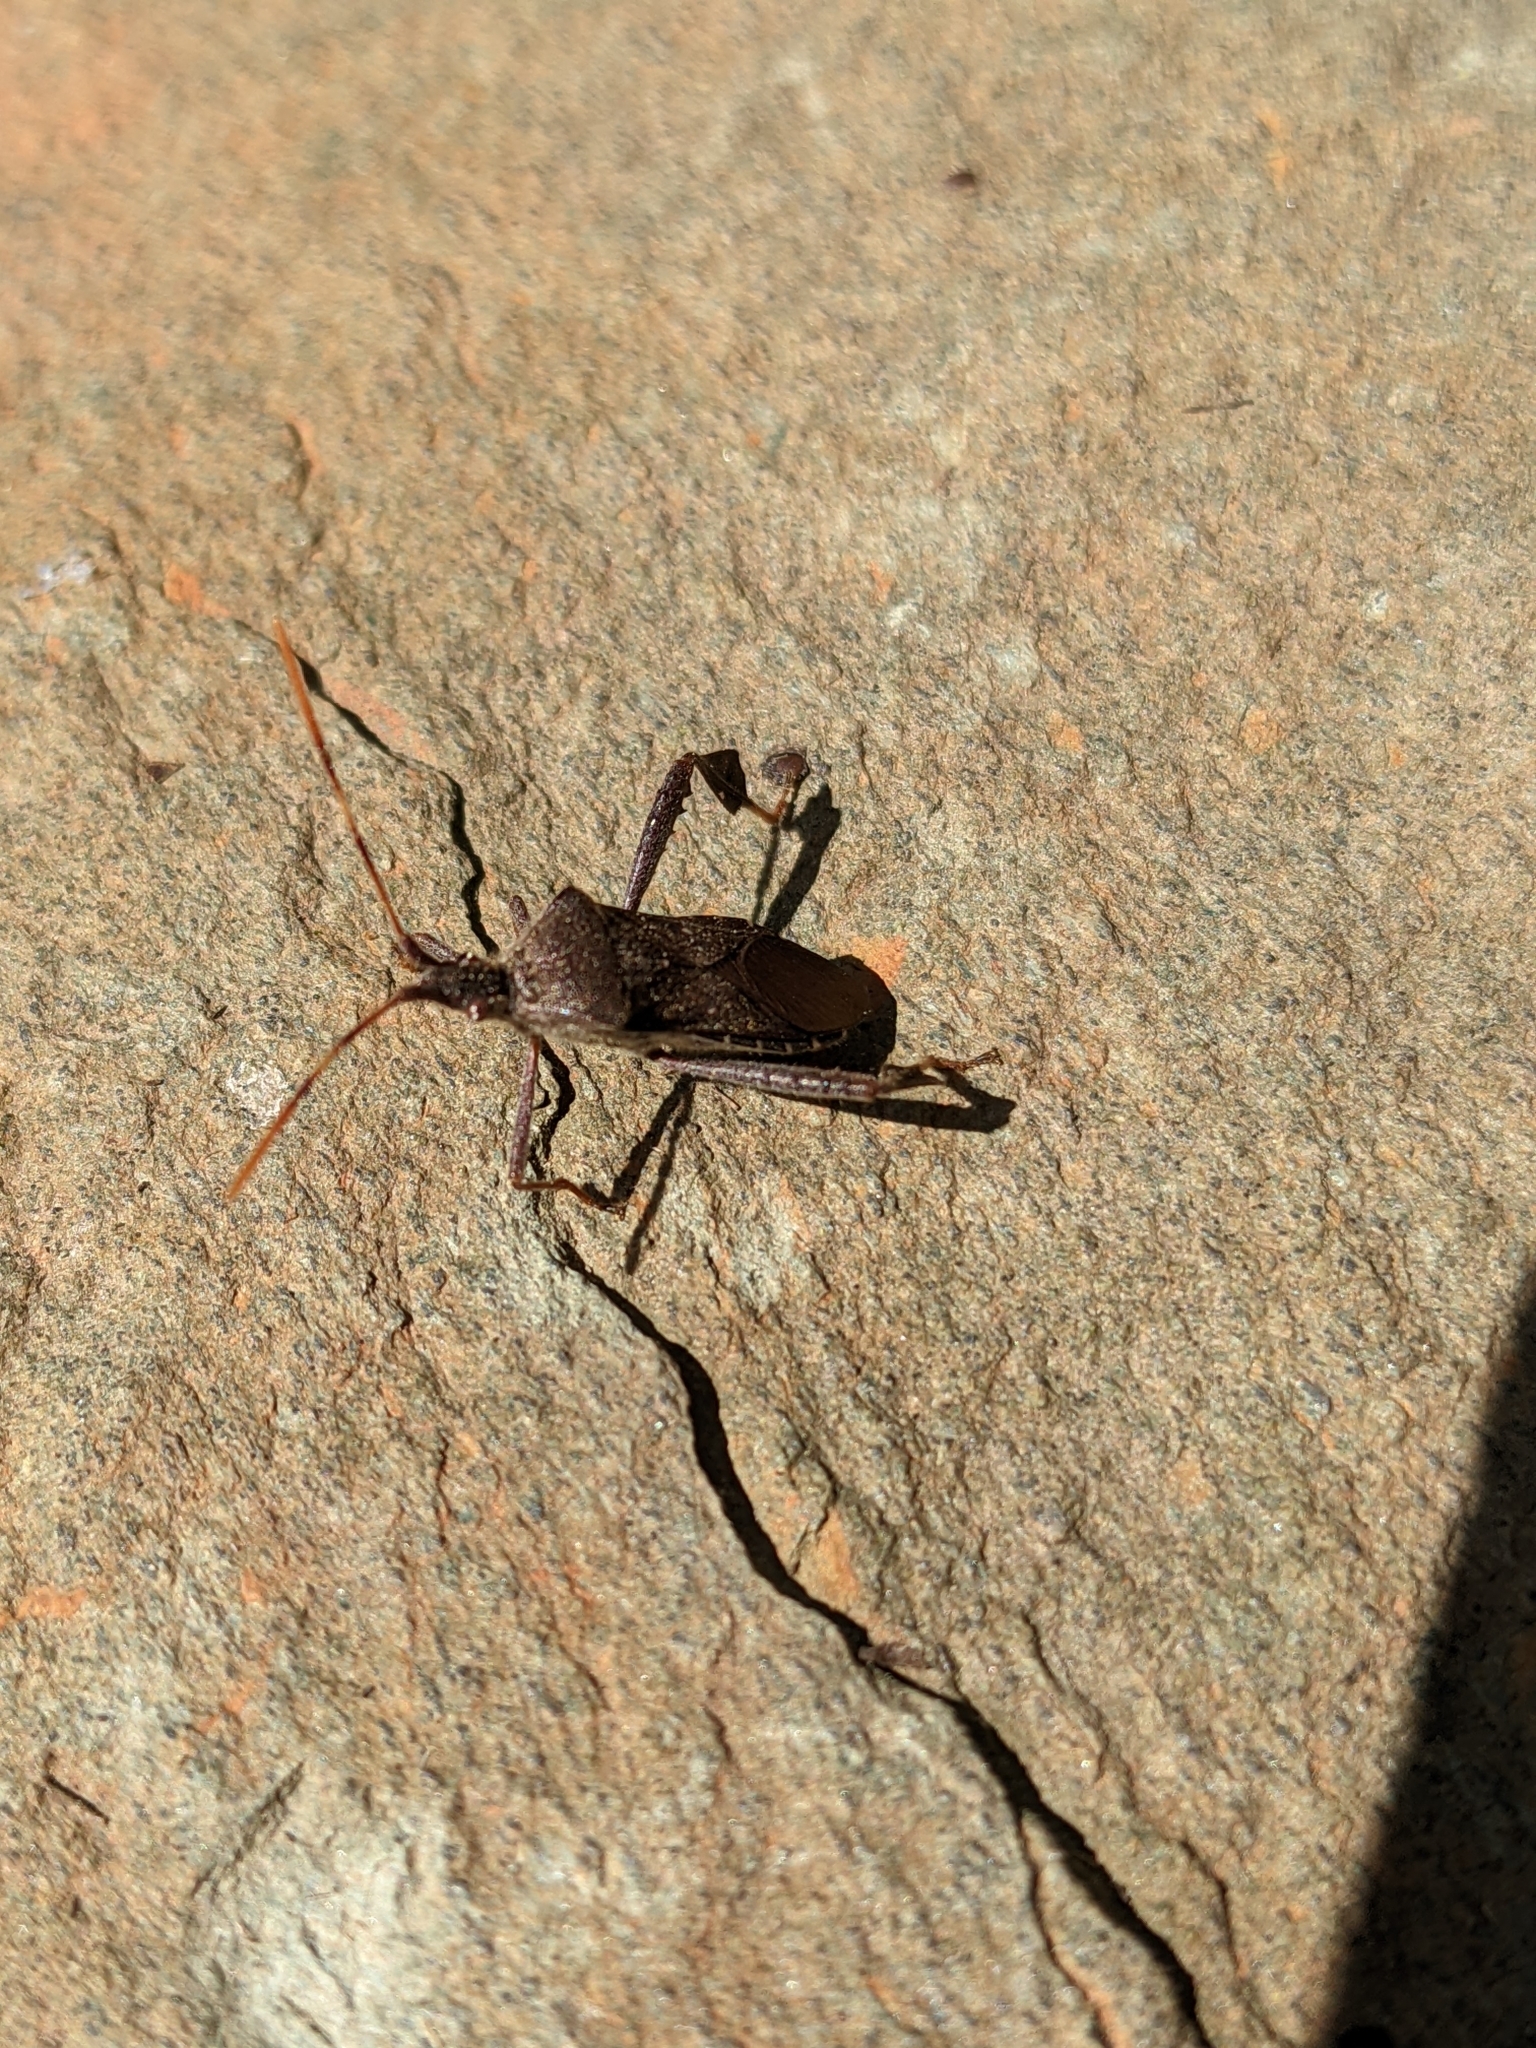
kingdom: Animalia
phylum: Arthropoda
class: Insecta
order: Hemiptera
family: Coreidae
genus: Leptoglossus
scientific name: Leptoglossus oppositus
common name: Northern leaf-footed bug
